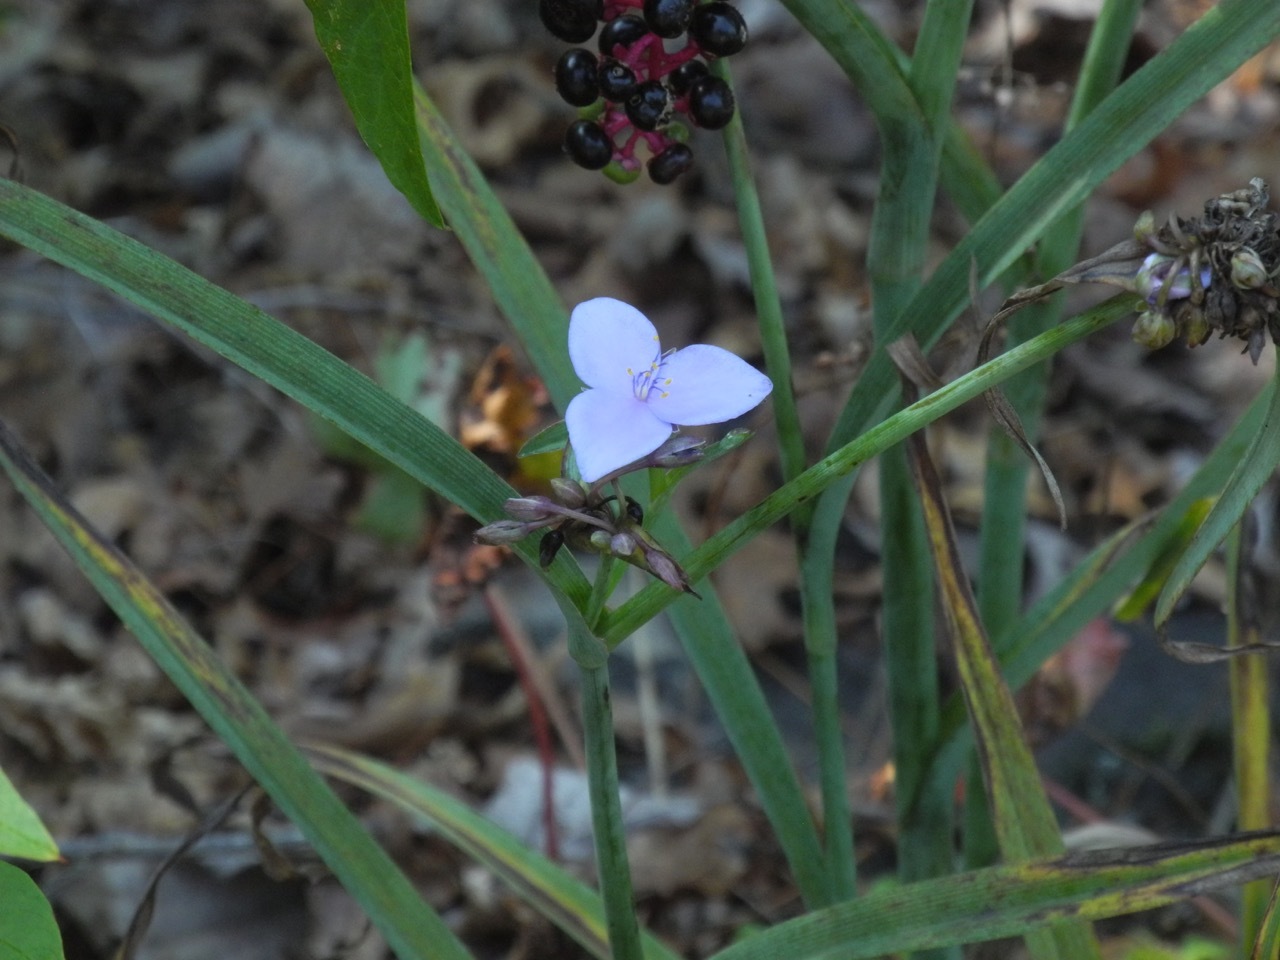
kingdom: Plantae
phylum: Tracheophyta
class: Liliopsida
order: Commelinales
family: Commelinaceae
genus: Tradescantia
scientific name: Tradescantia ohiensis
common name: Ohio spiderwort
